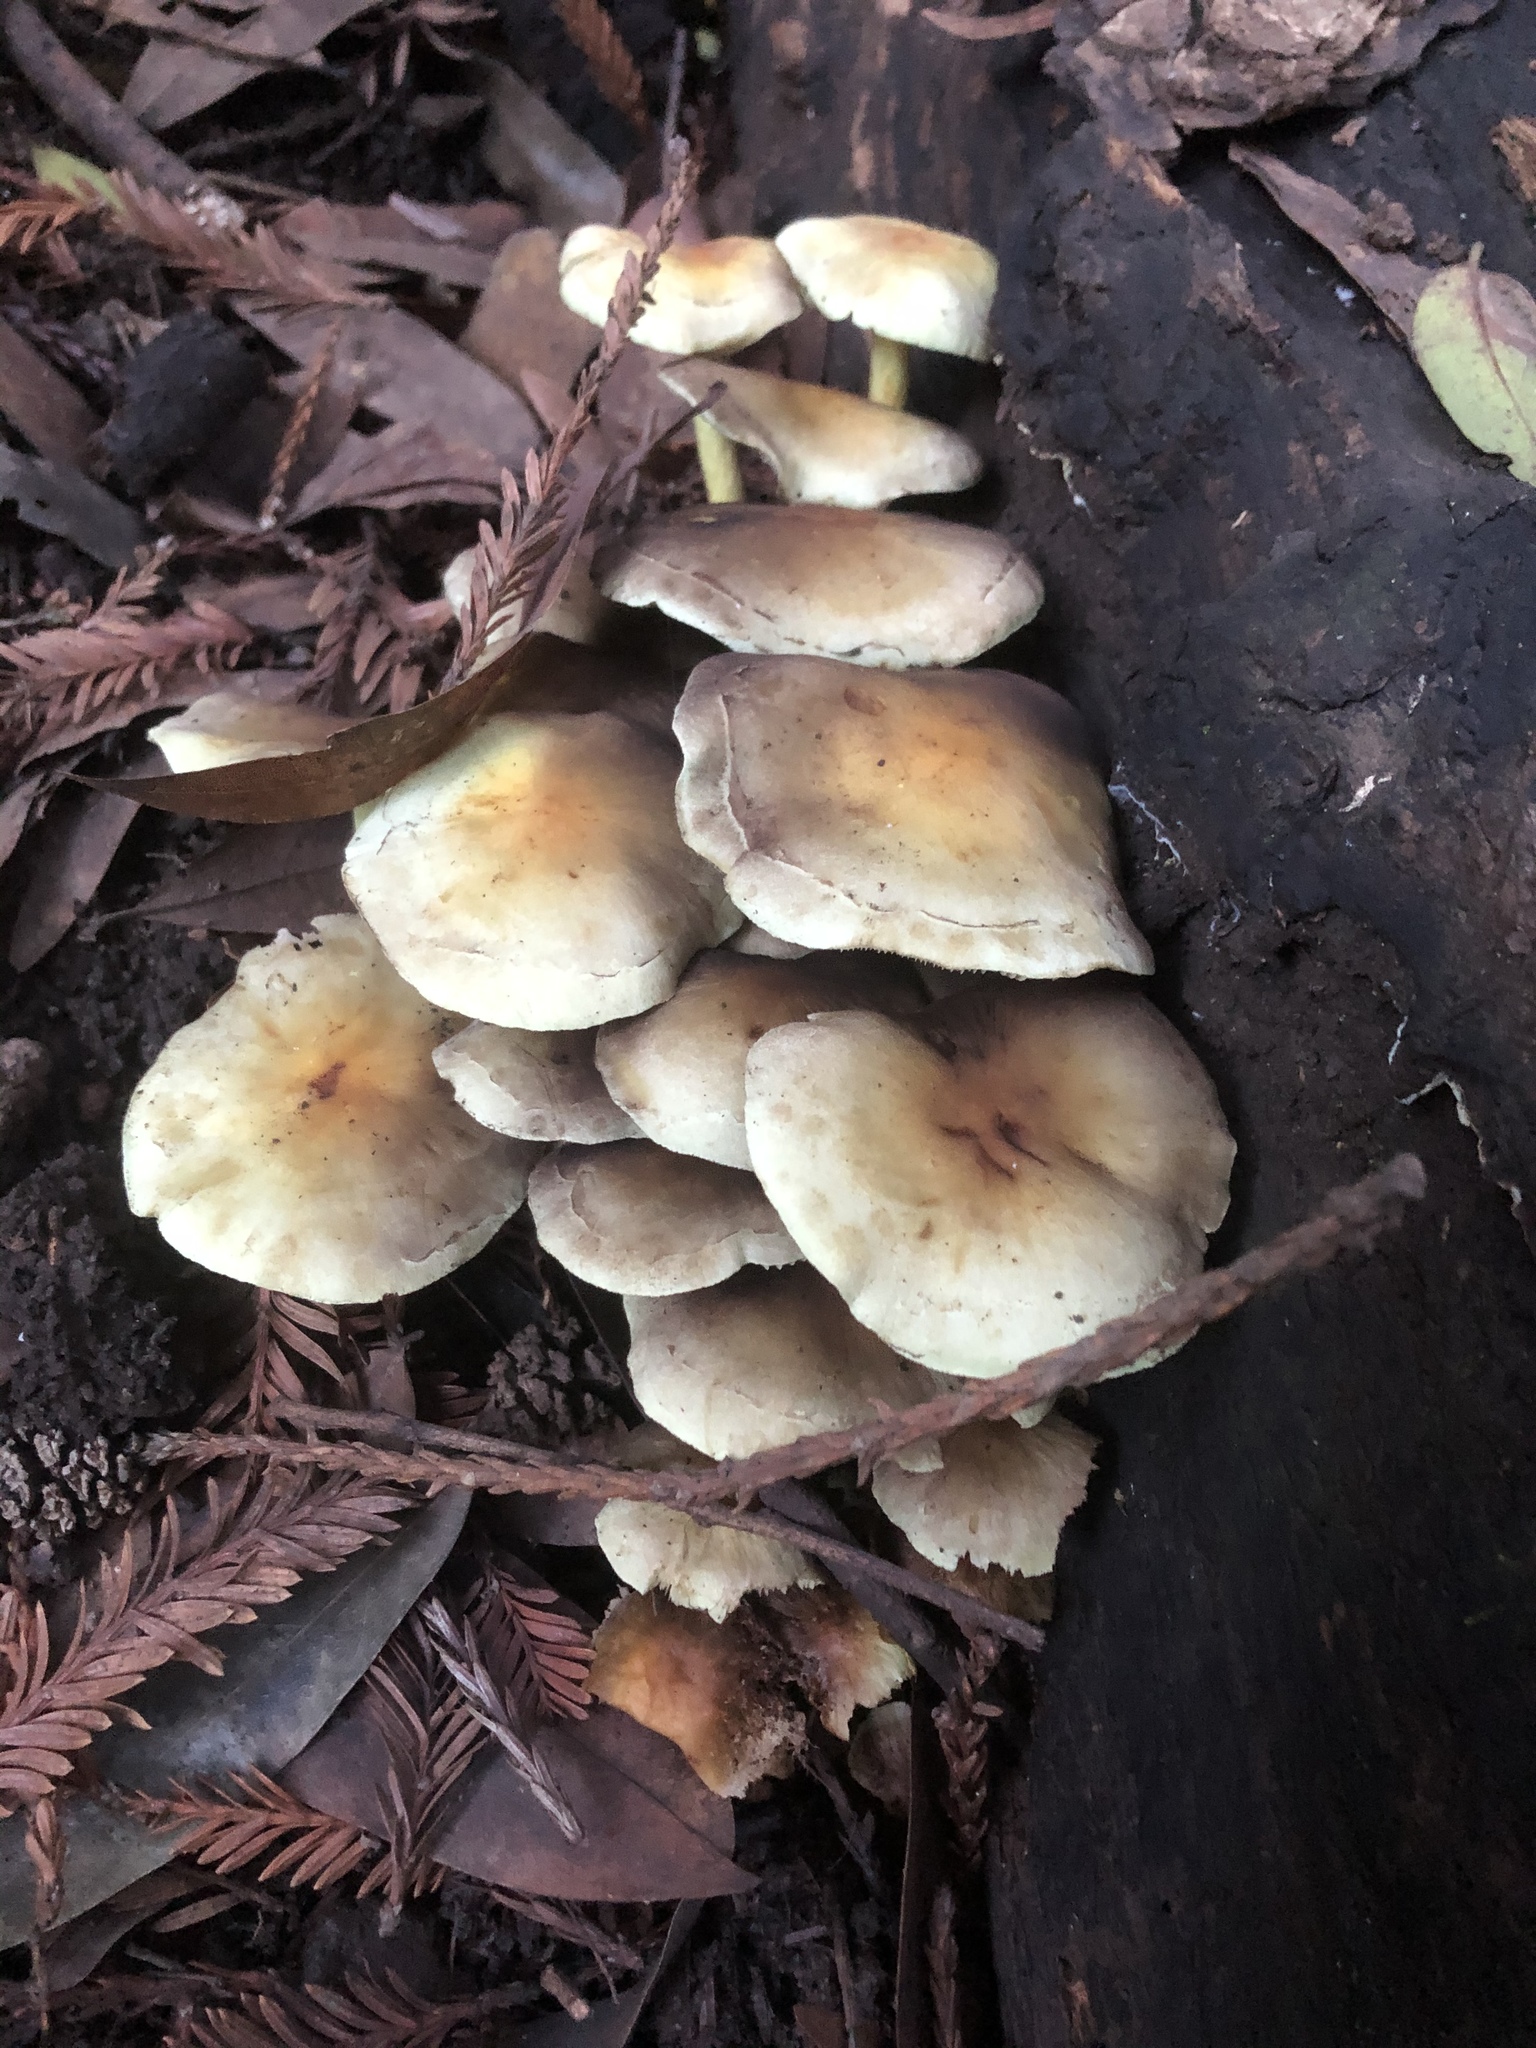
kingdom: Fungi
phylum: Basidiomycota
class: Agaricomycetes
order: Agaricales
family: Strophariaceae
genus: Hypholoma
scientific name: Hypholoma fasciculare
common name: Sulphur tuft
